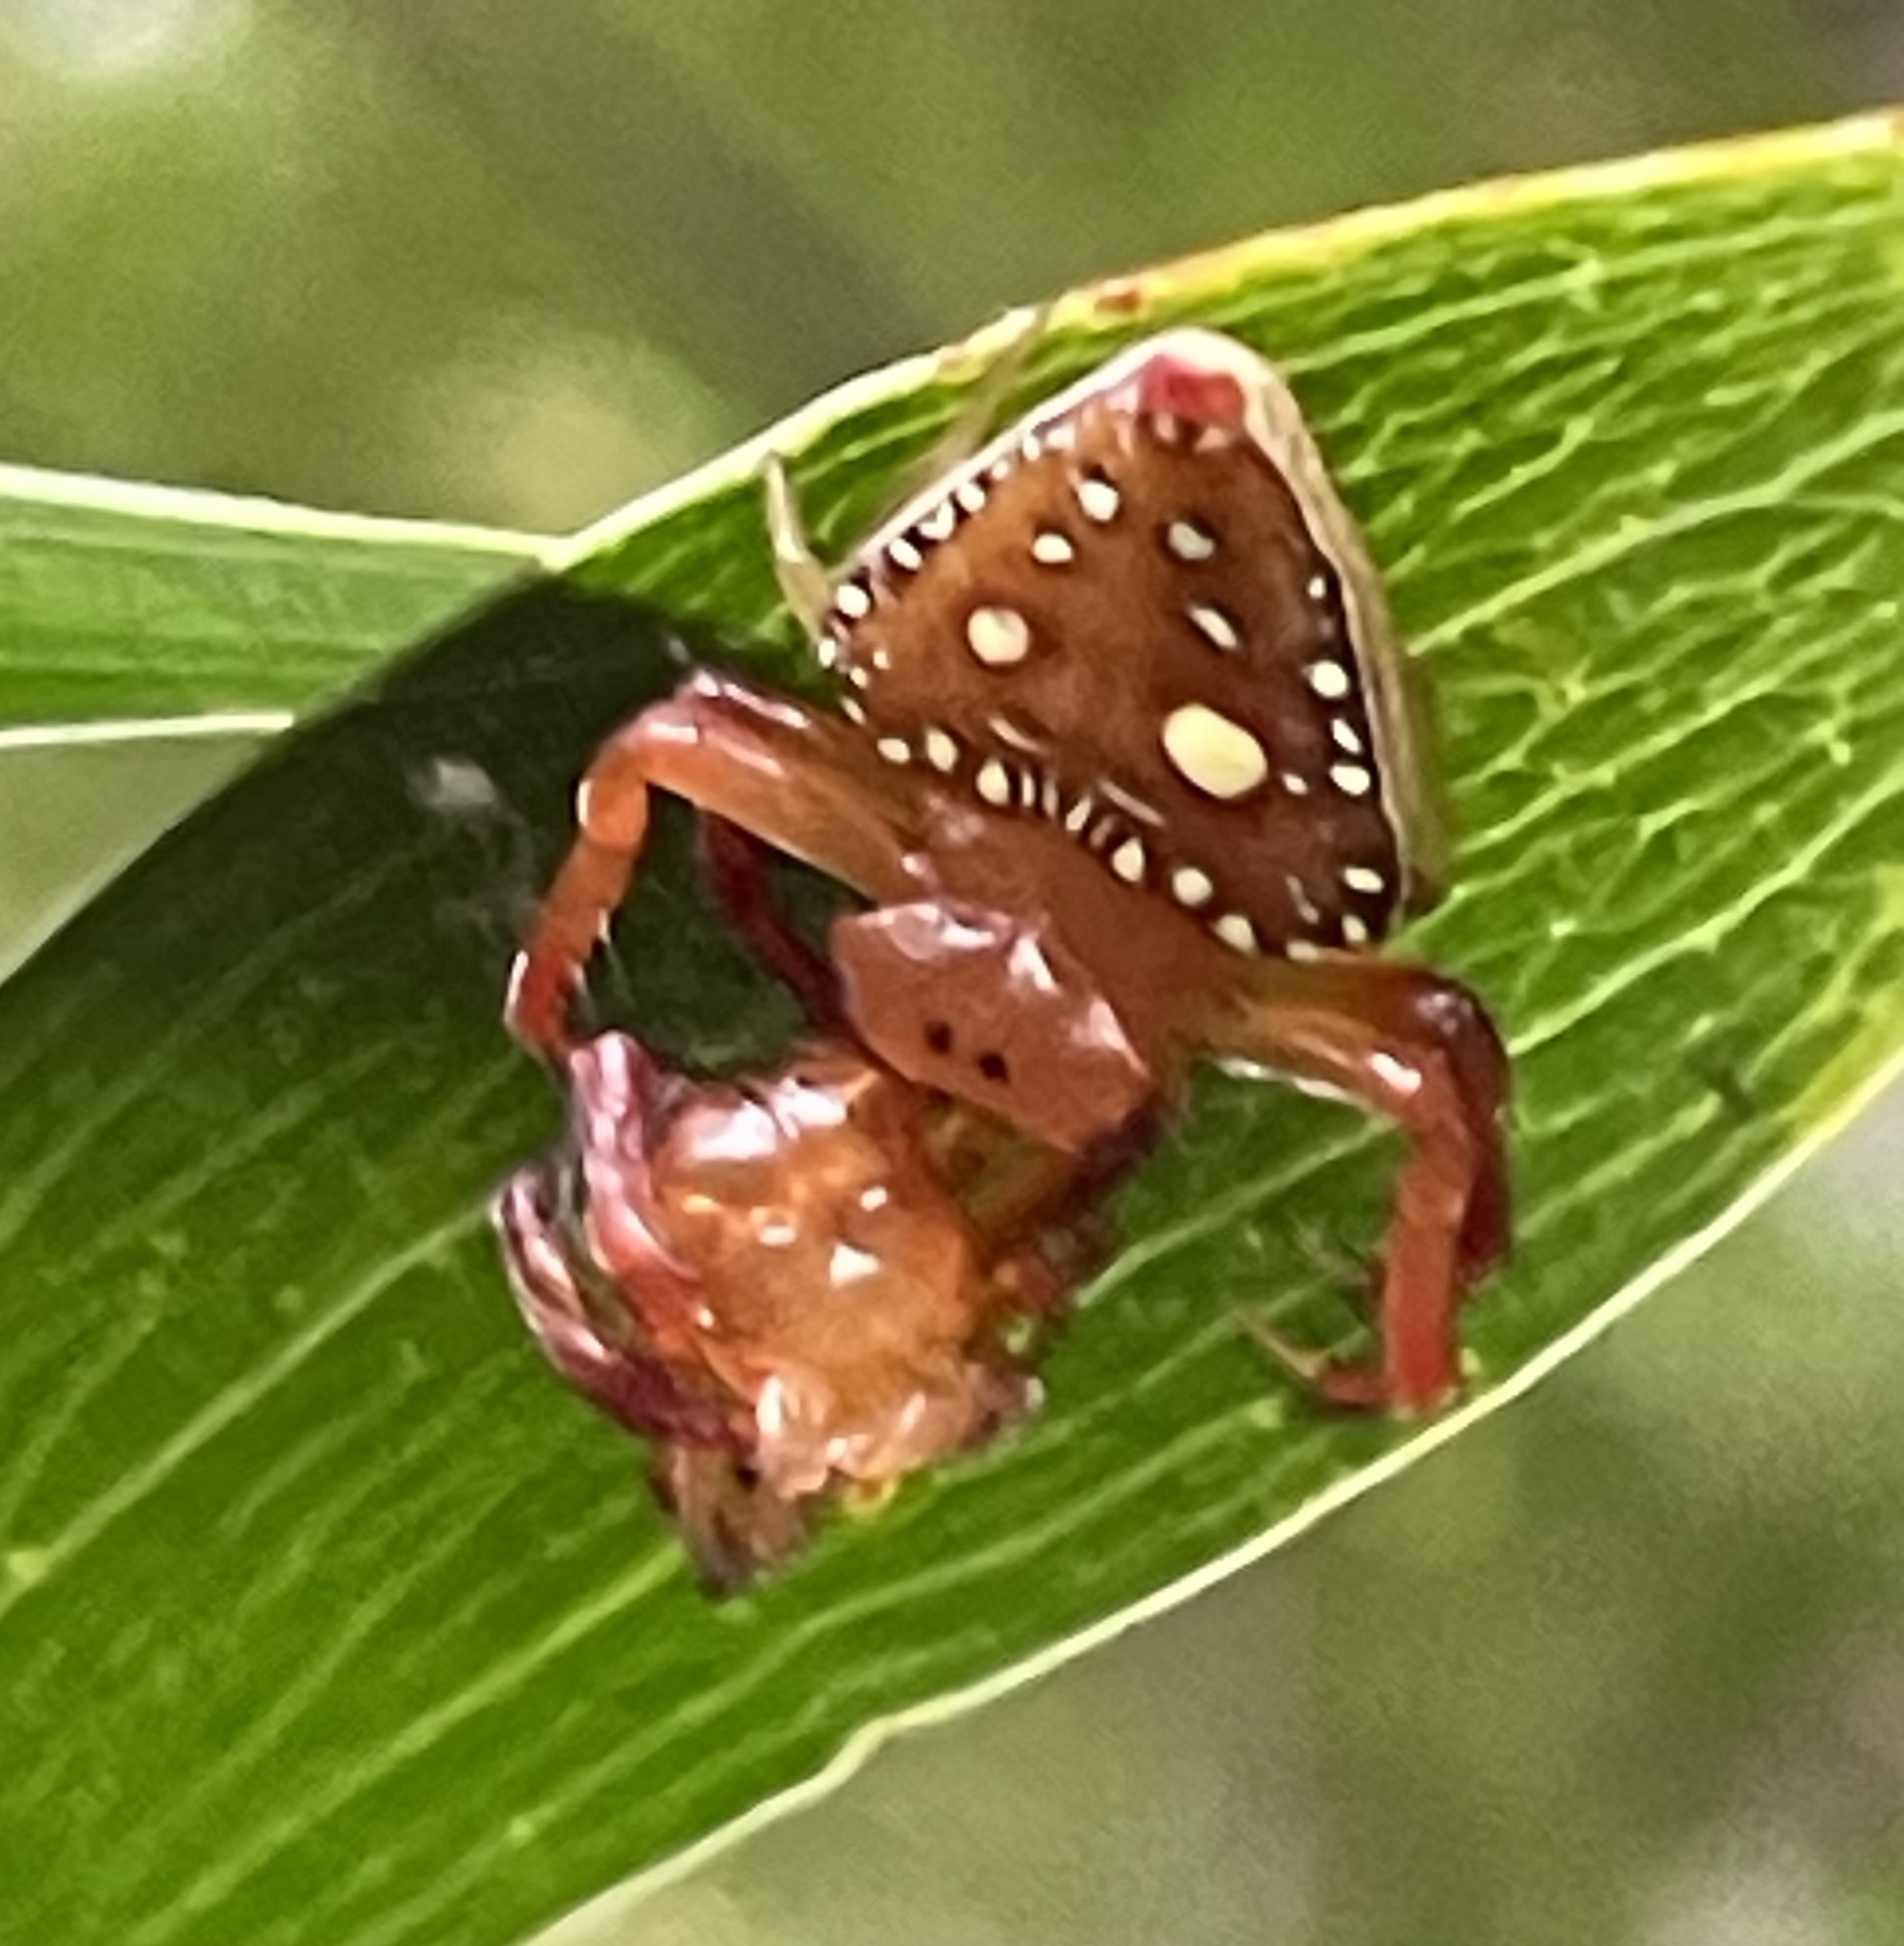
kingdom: Animalia
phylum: Arthropoda
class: Arachnida
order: Araneae
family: Arkyidae
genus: Arkys
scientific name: Arkys lancearius
